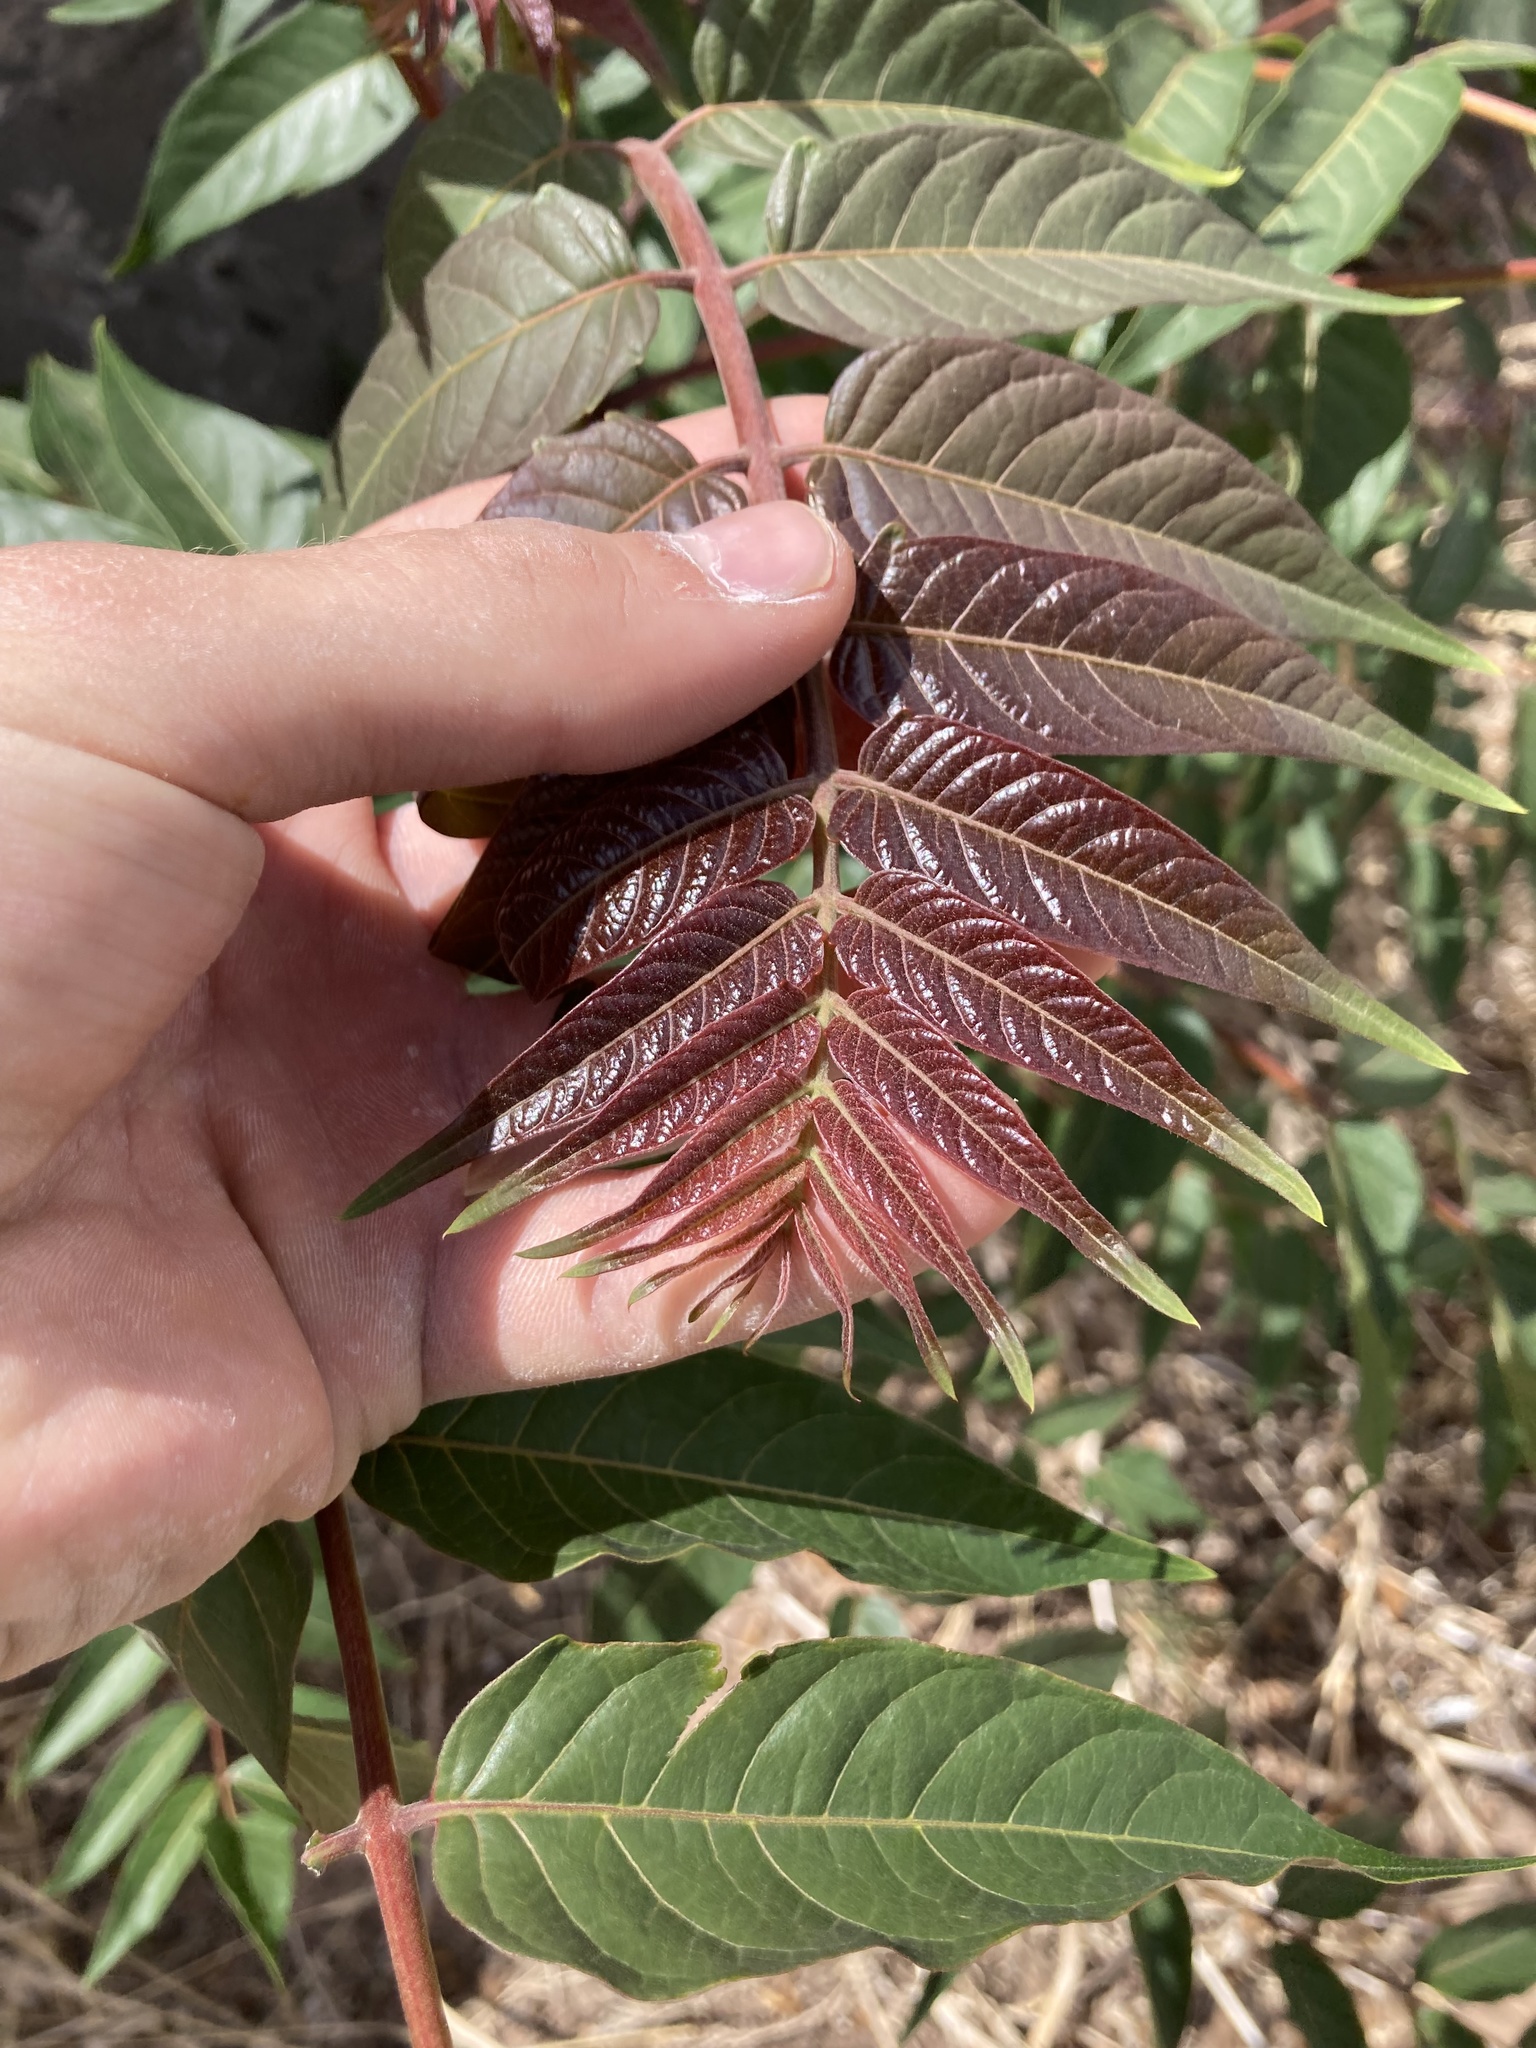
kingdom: Plantae
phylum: Tracheophyta
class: Magnoliopsida
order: Sapindales
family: Simaroubaceae
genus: Ailanthus
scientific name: Ailanthus altissima
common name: Tree-of-heaven
